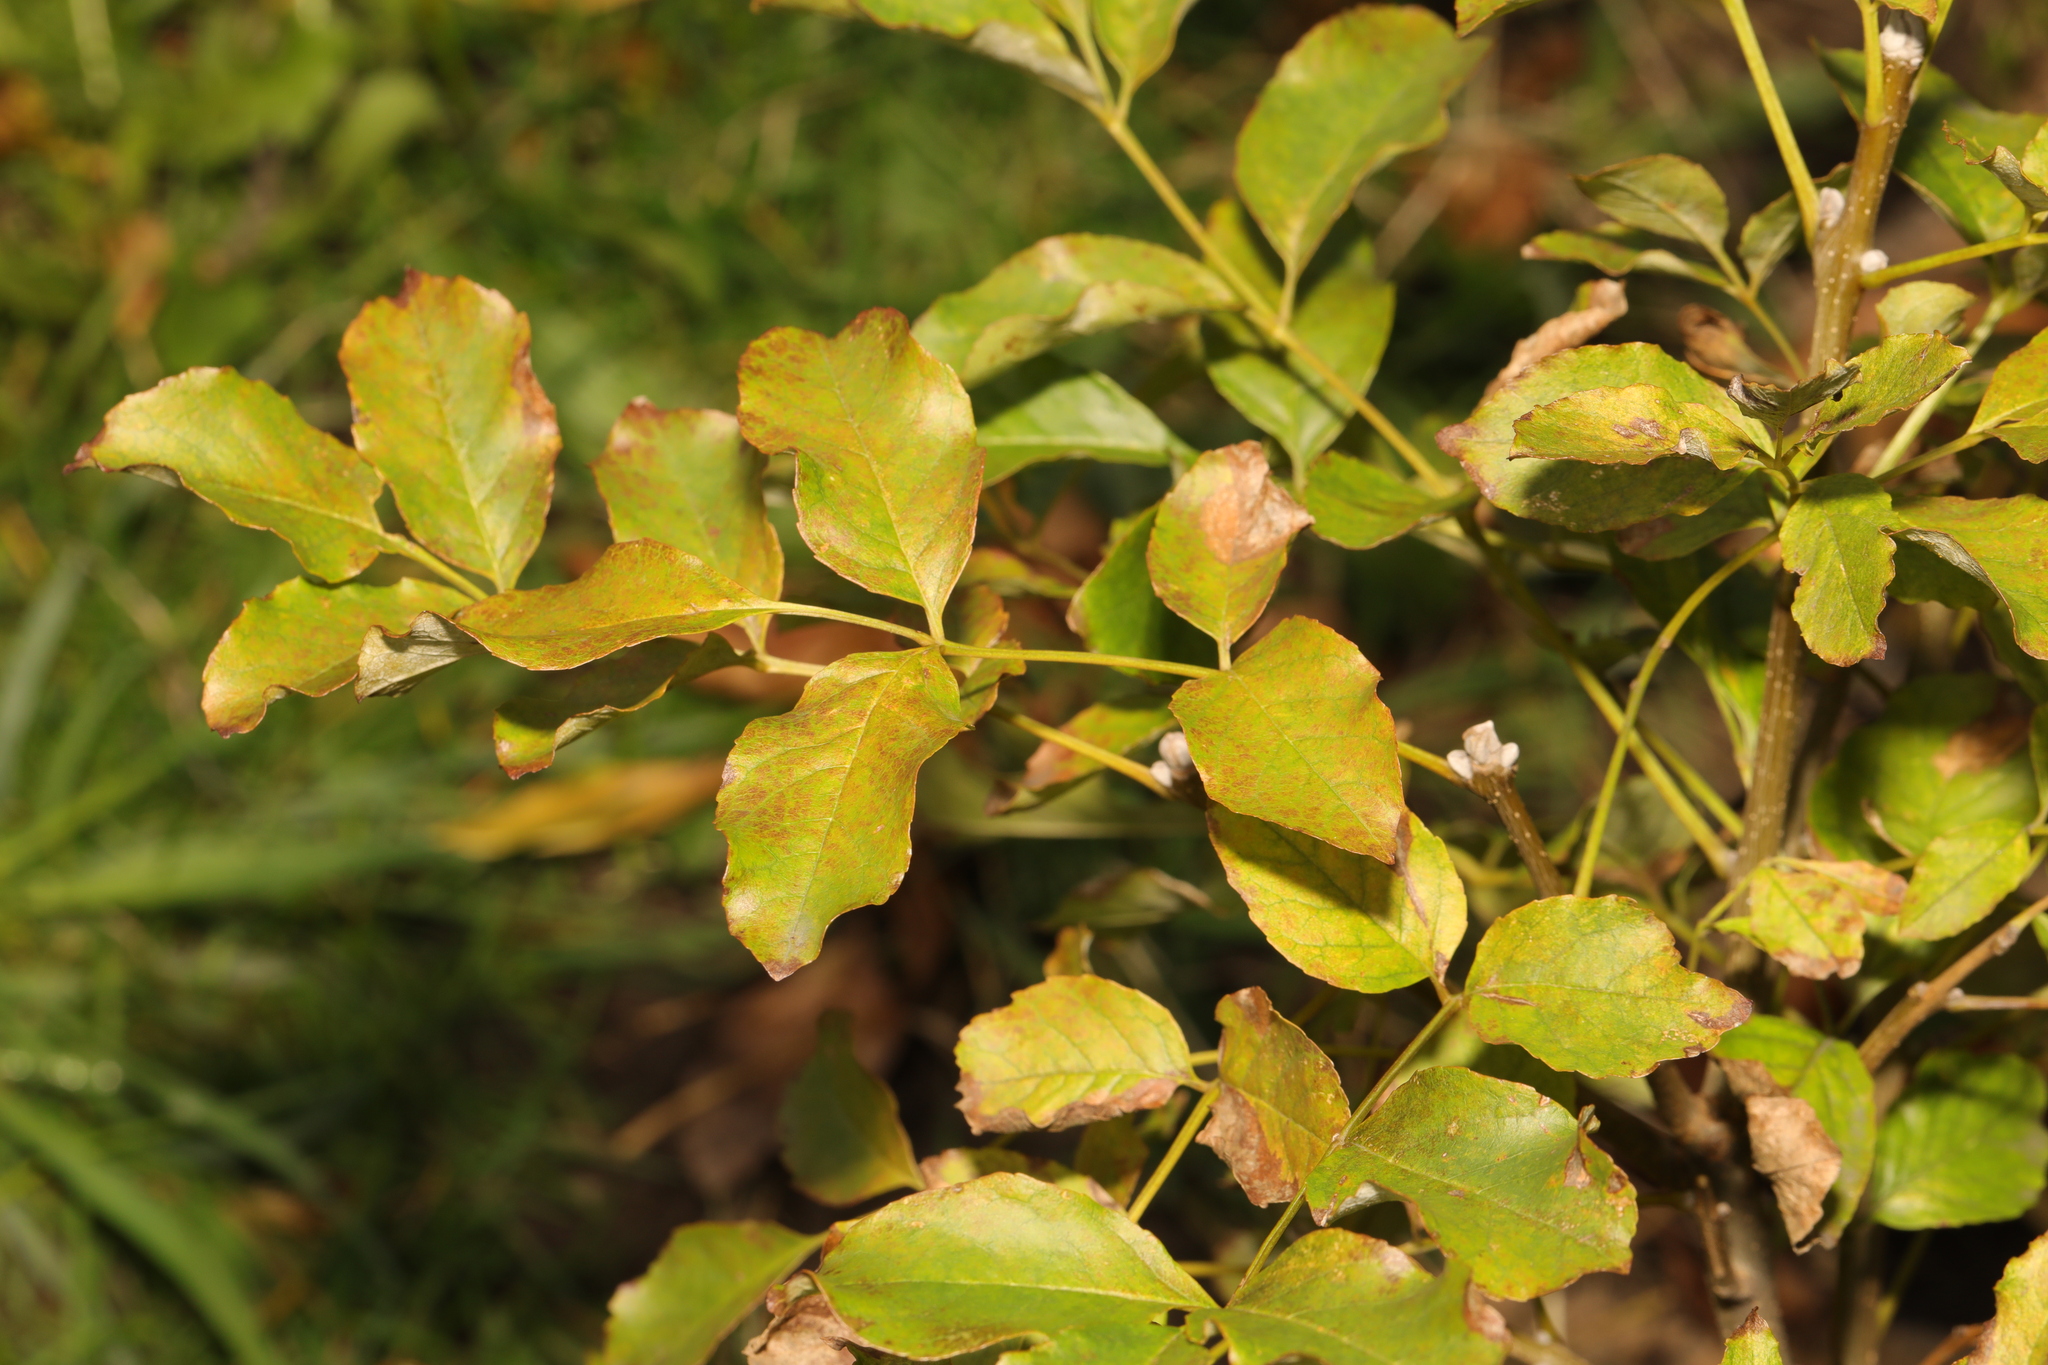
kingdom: Plantae
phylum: Tracheophyta
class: Magnoliopsida
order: Lamiales
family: Oleaceae
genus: Fraxinus
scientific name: Fraxinus ornus
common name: Manna ash
